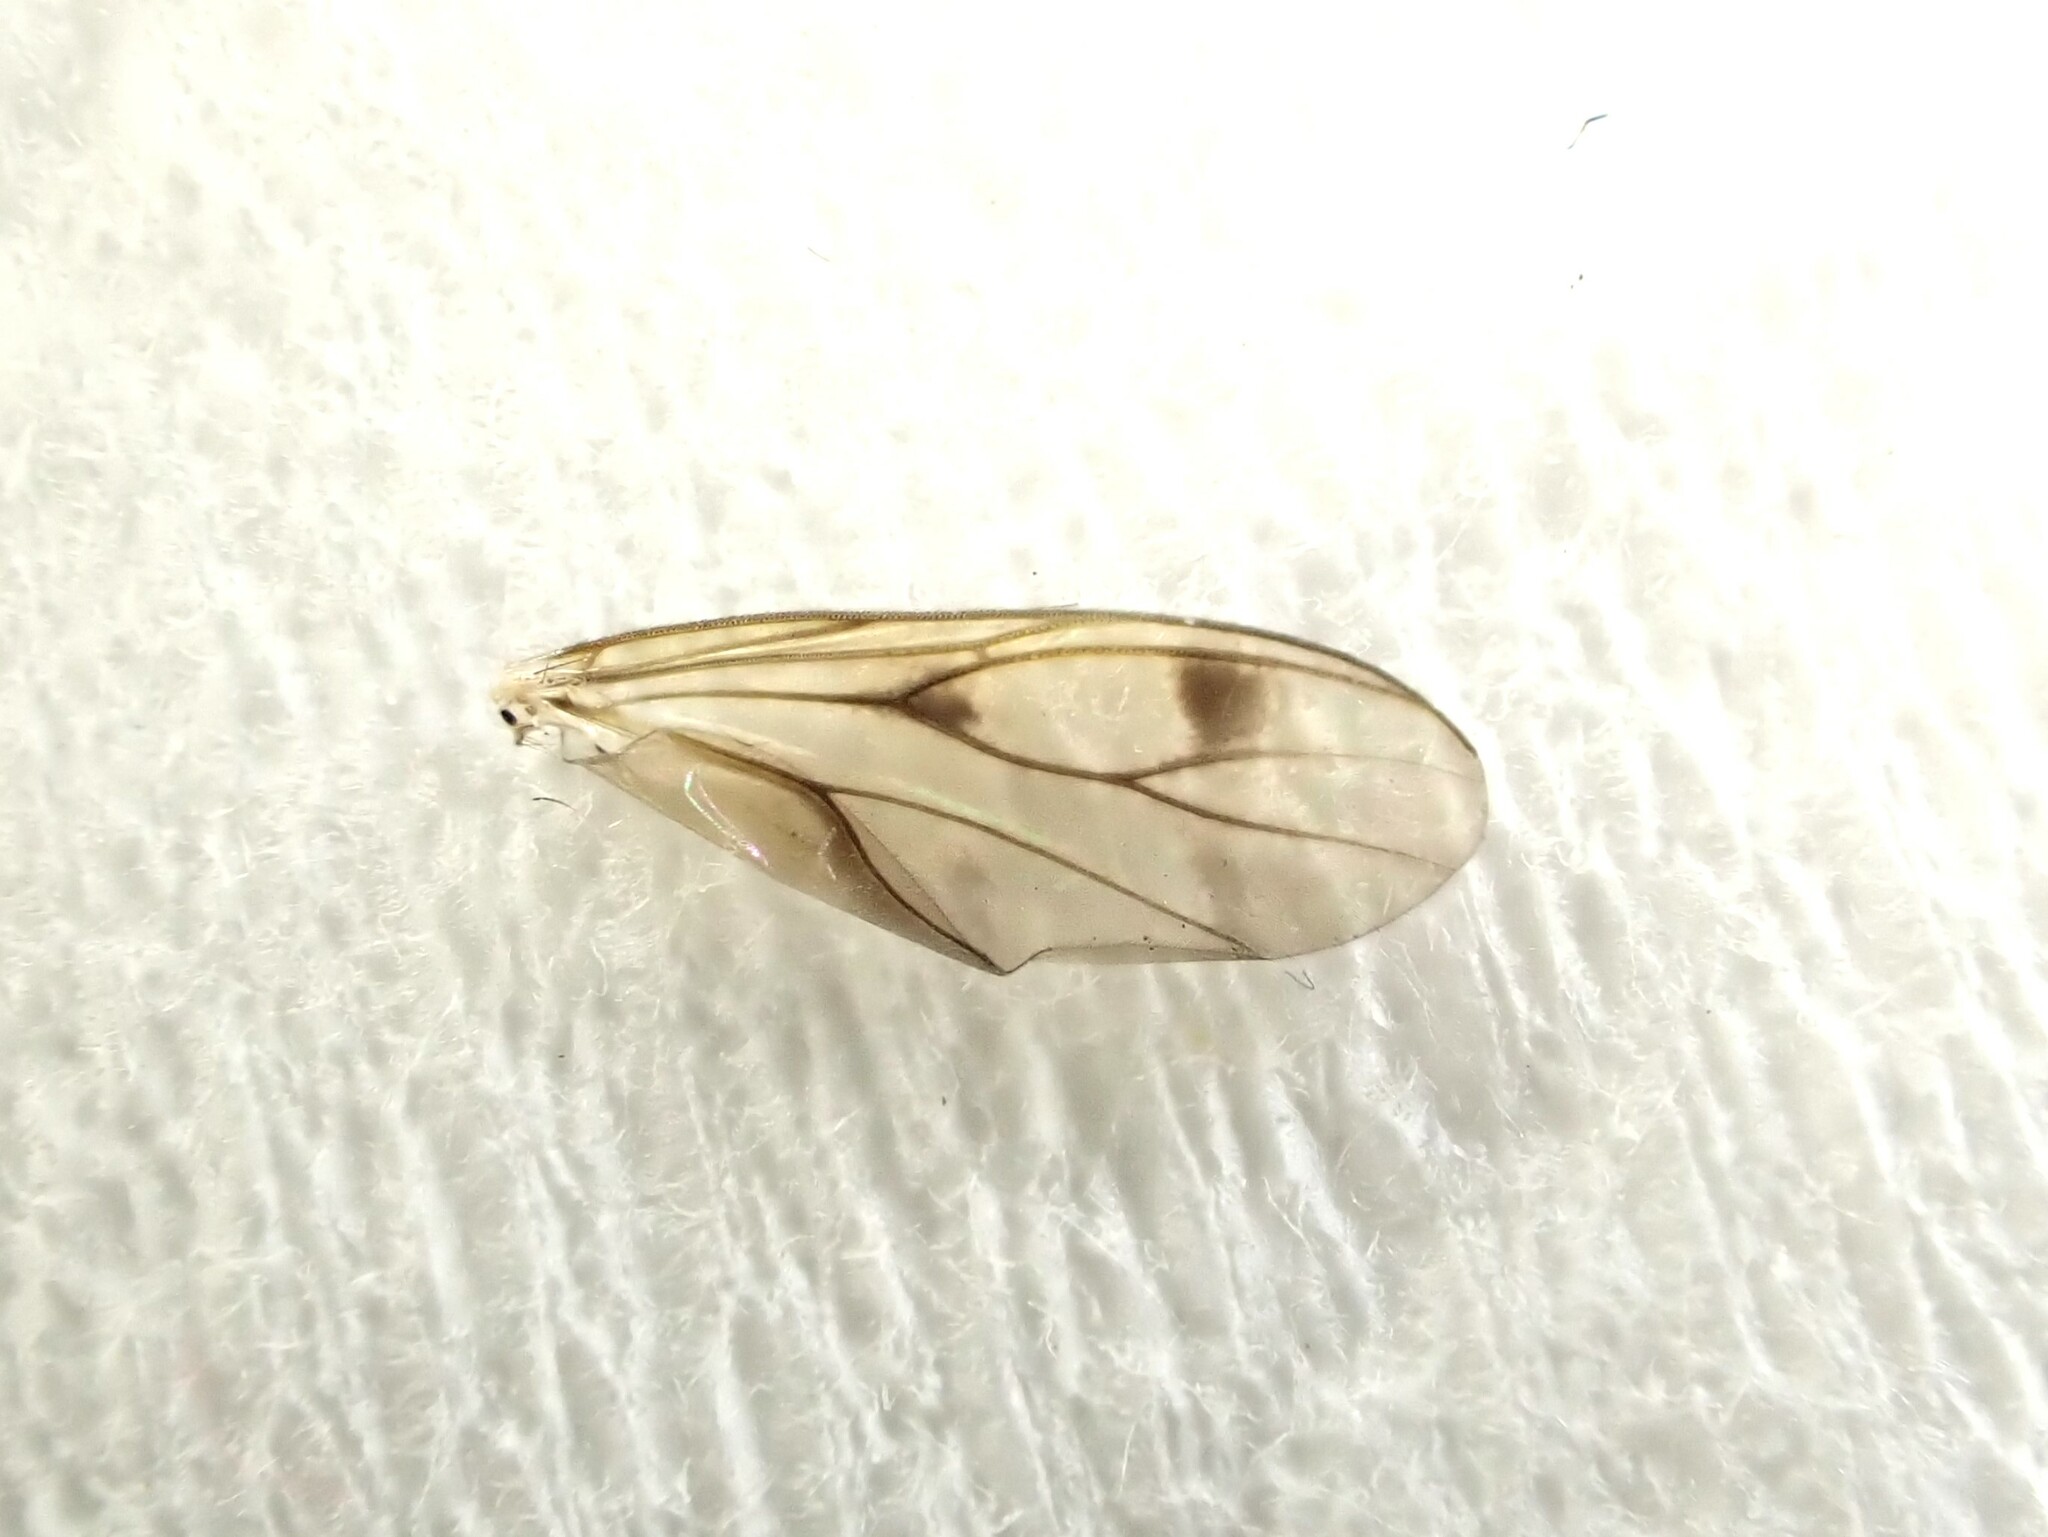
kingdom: Animalia
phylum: Arthropoda
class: Insecta
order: Diptera
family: Mycetophilidae
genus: Anomalomyia
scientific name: Anomalomyia guttata
